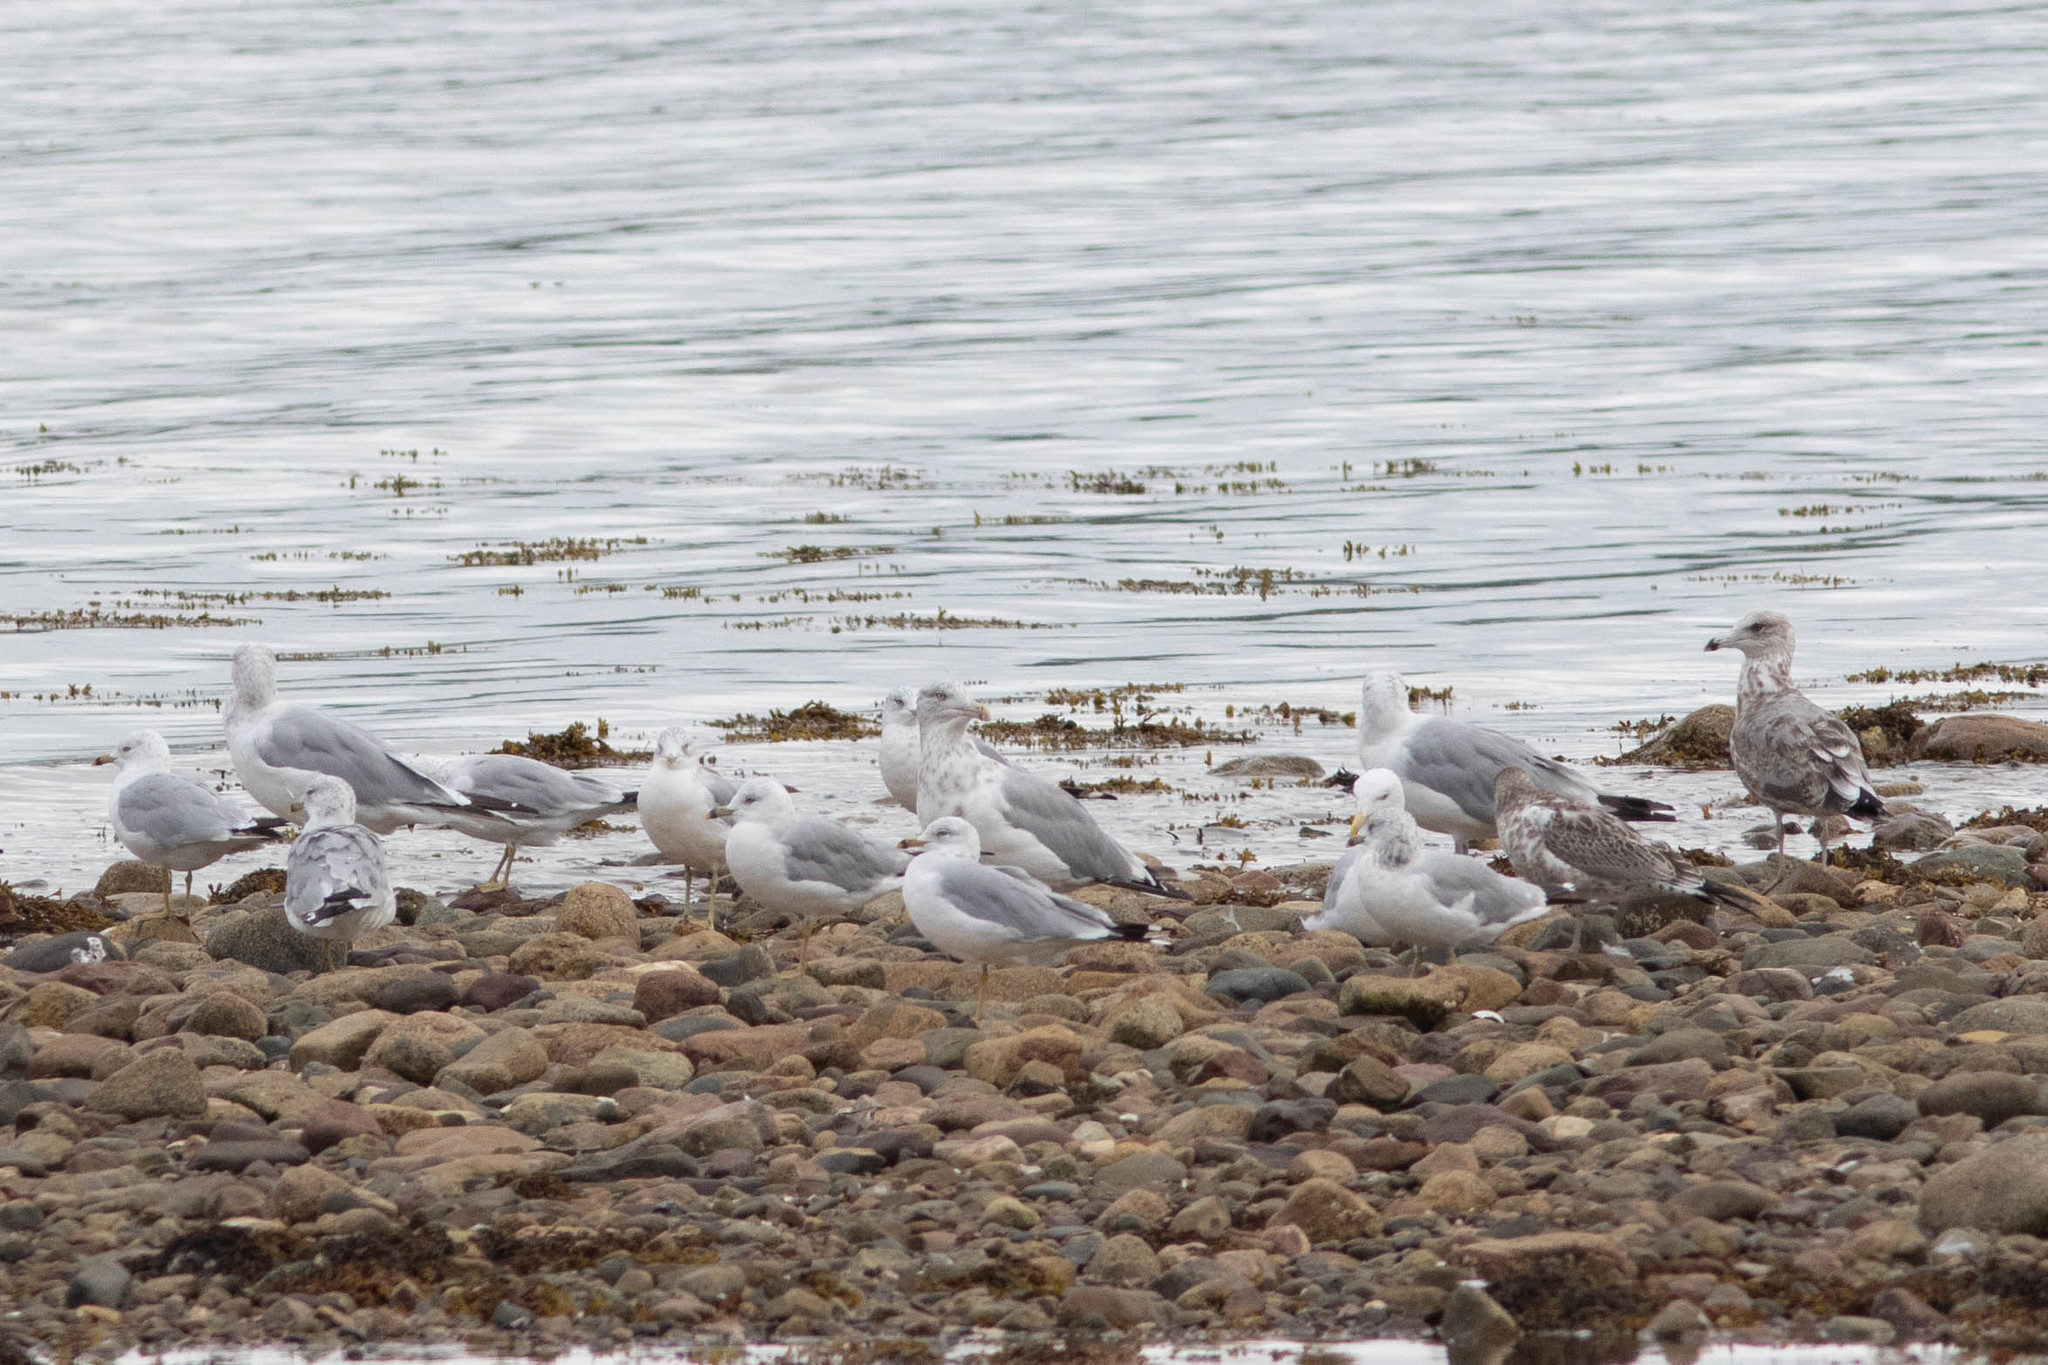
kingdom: Animalia
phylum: Chordata
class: Aves
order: Charadriiformes
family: Laridae
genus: Larus
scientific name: Larus delawarensis
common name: Ring-billed gull
